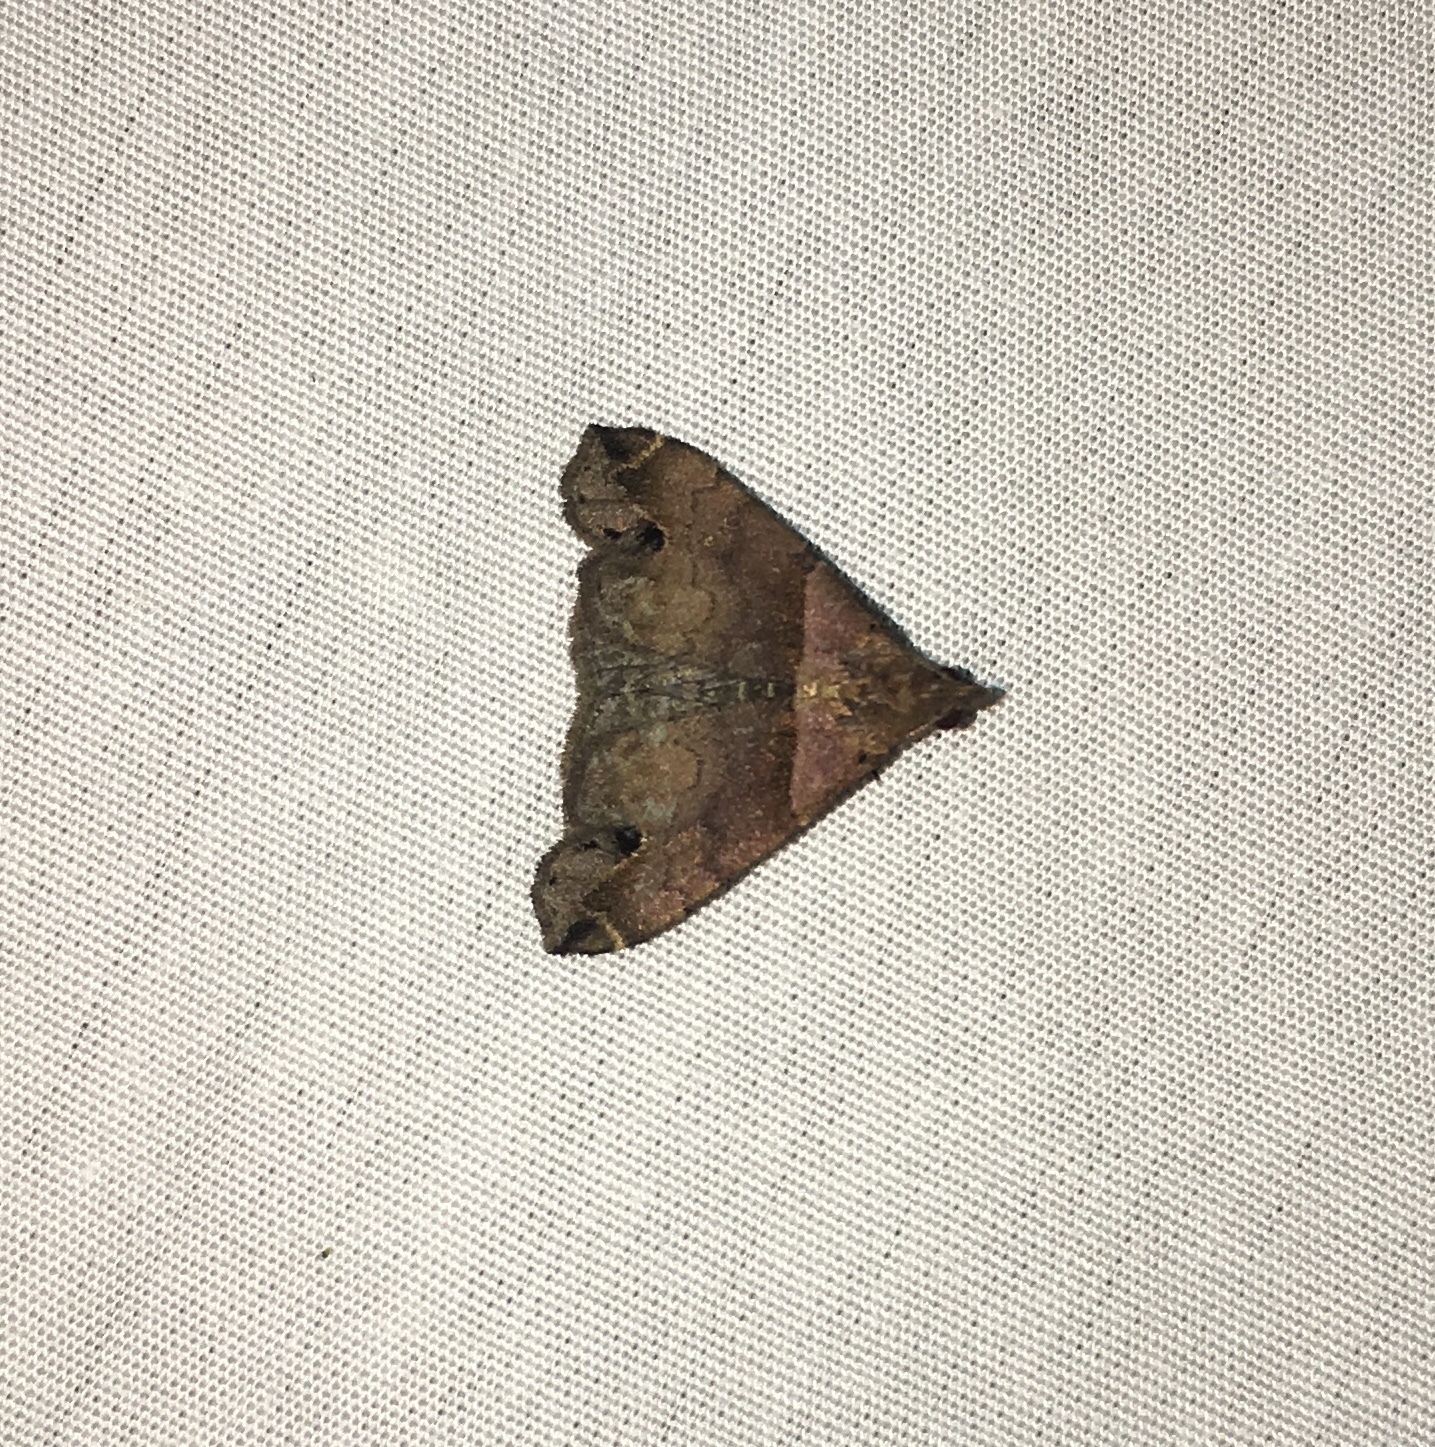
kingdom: Animalia
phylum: Arthropoda
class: Insecta
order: Lepidoptera
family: Erebidae
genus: Lascoria
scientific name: Lascoria ambigualis
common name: Ambiguous moth
